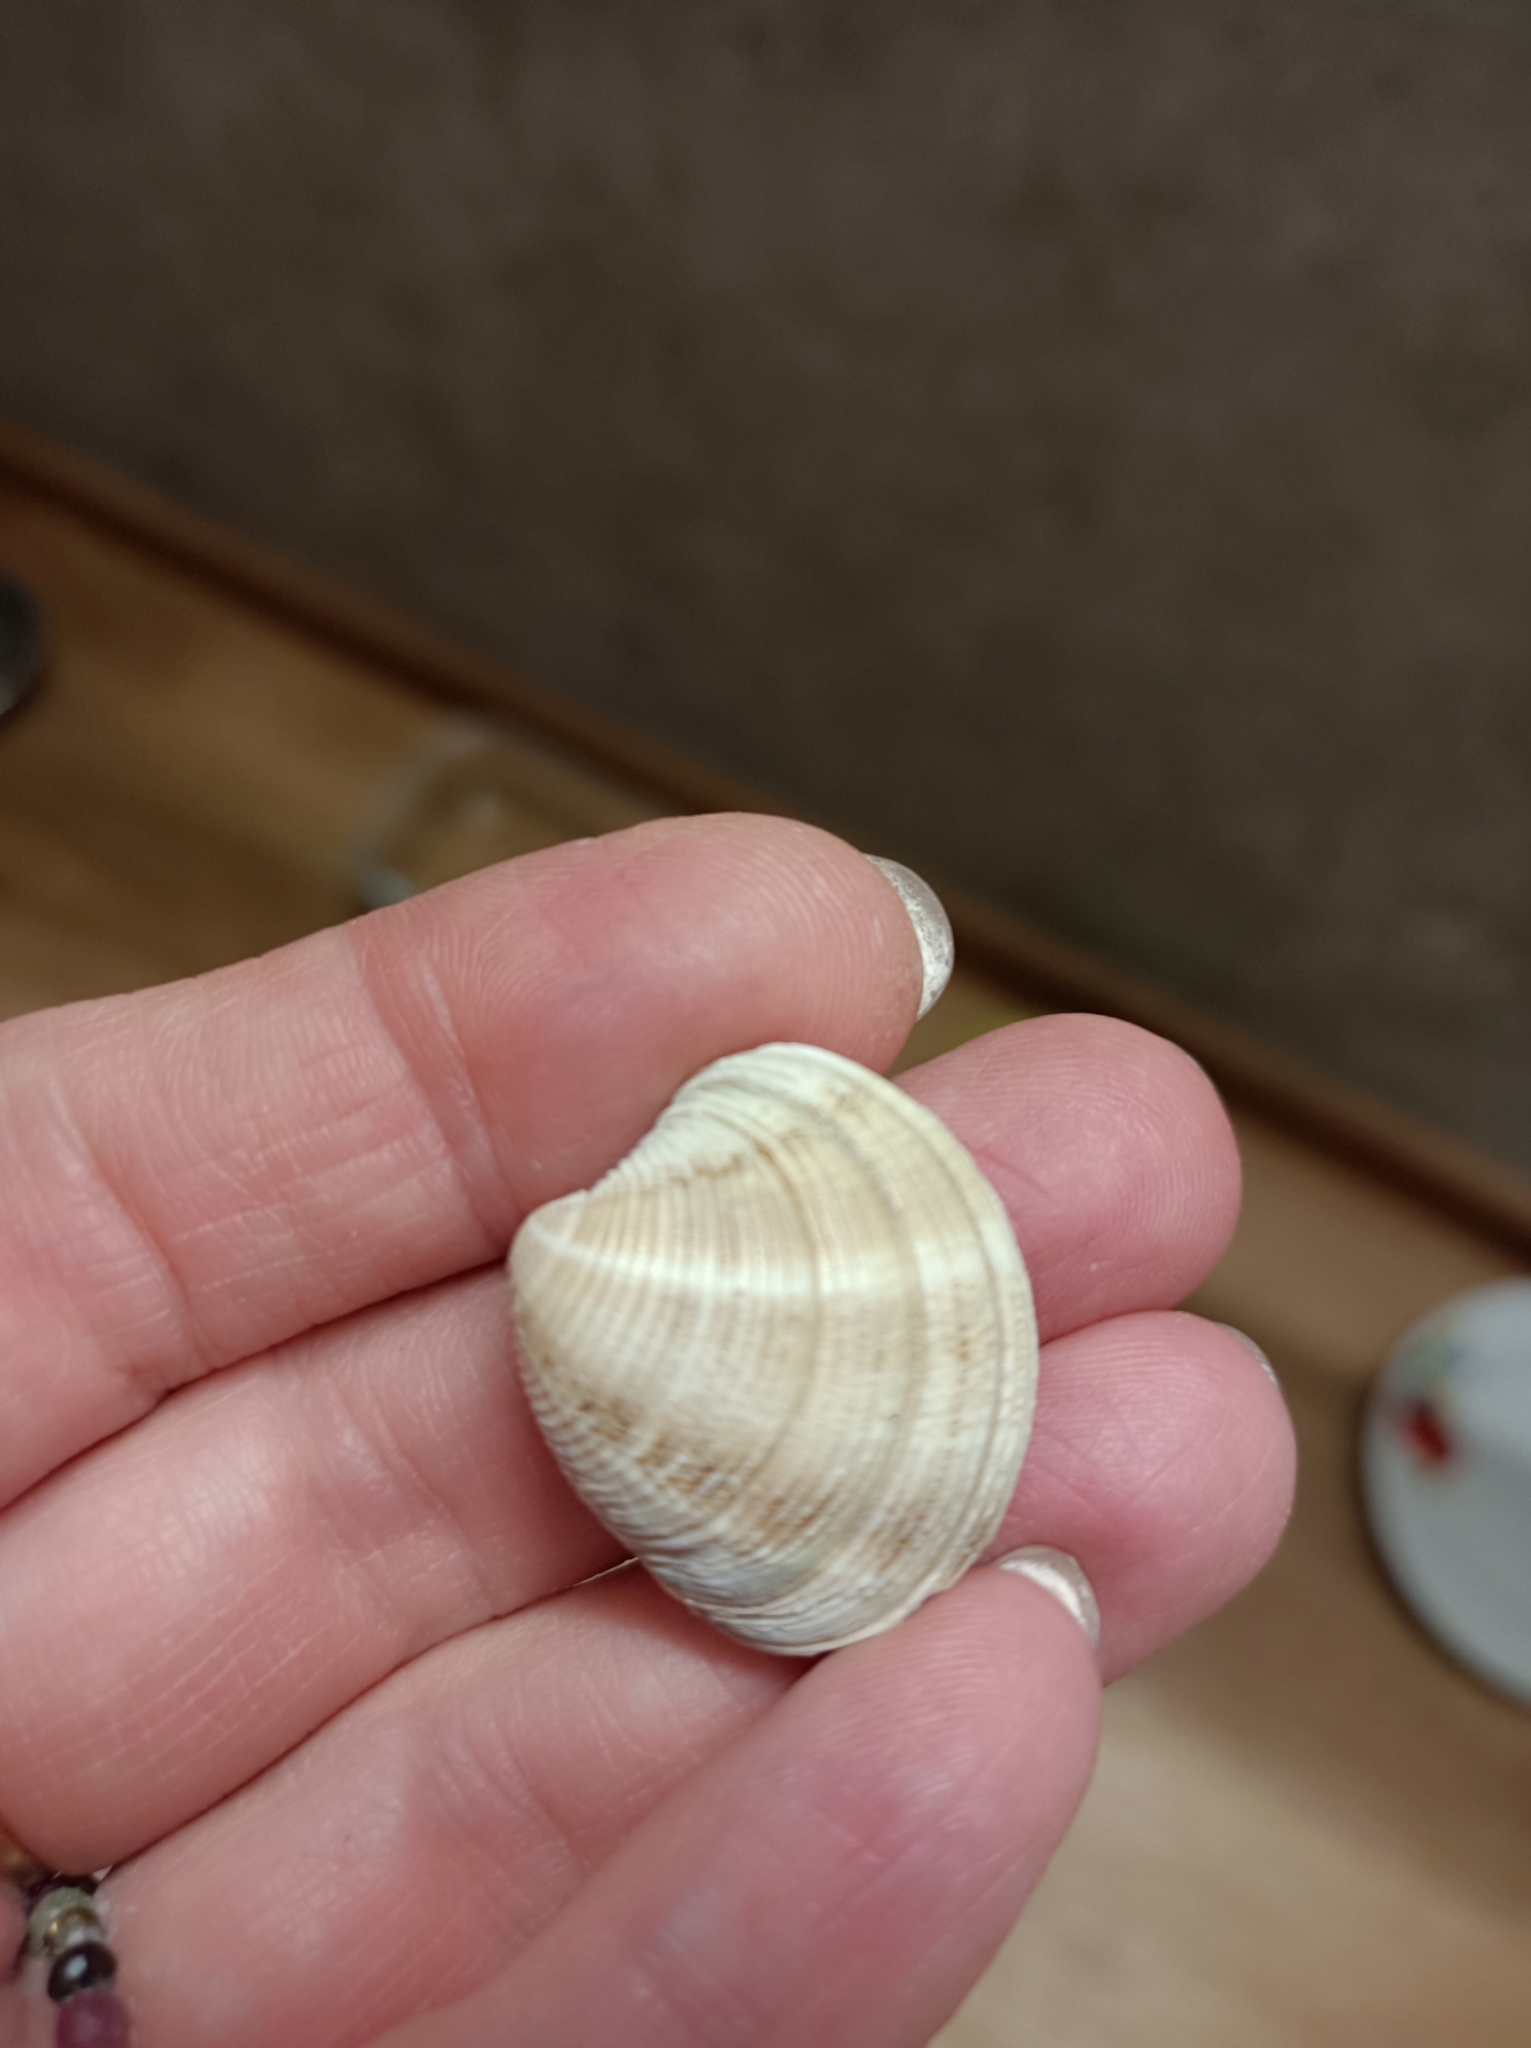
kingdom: Animalia
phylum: Mollusca
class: Bivalvia
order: Venerida
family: Veneridae
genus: Chamelea
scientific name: Chamelea gallina
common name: Chicken venus
